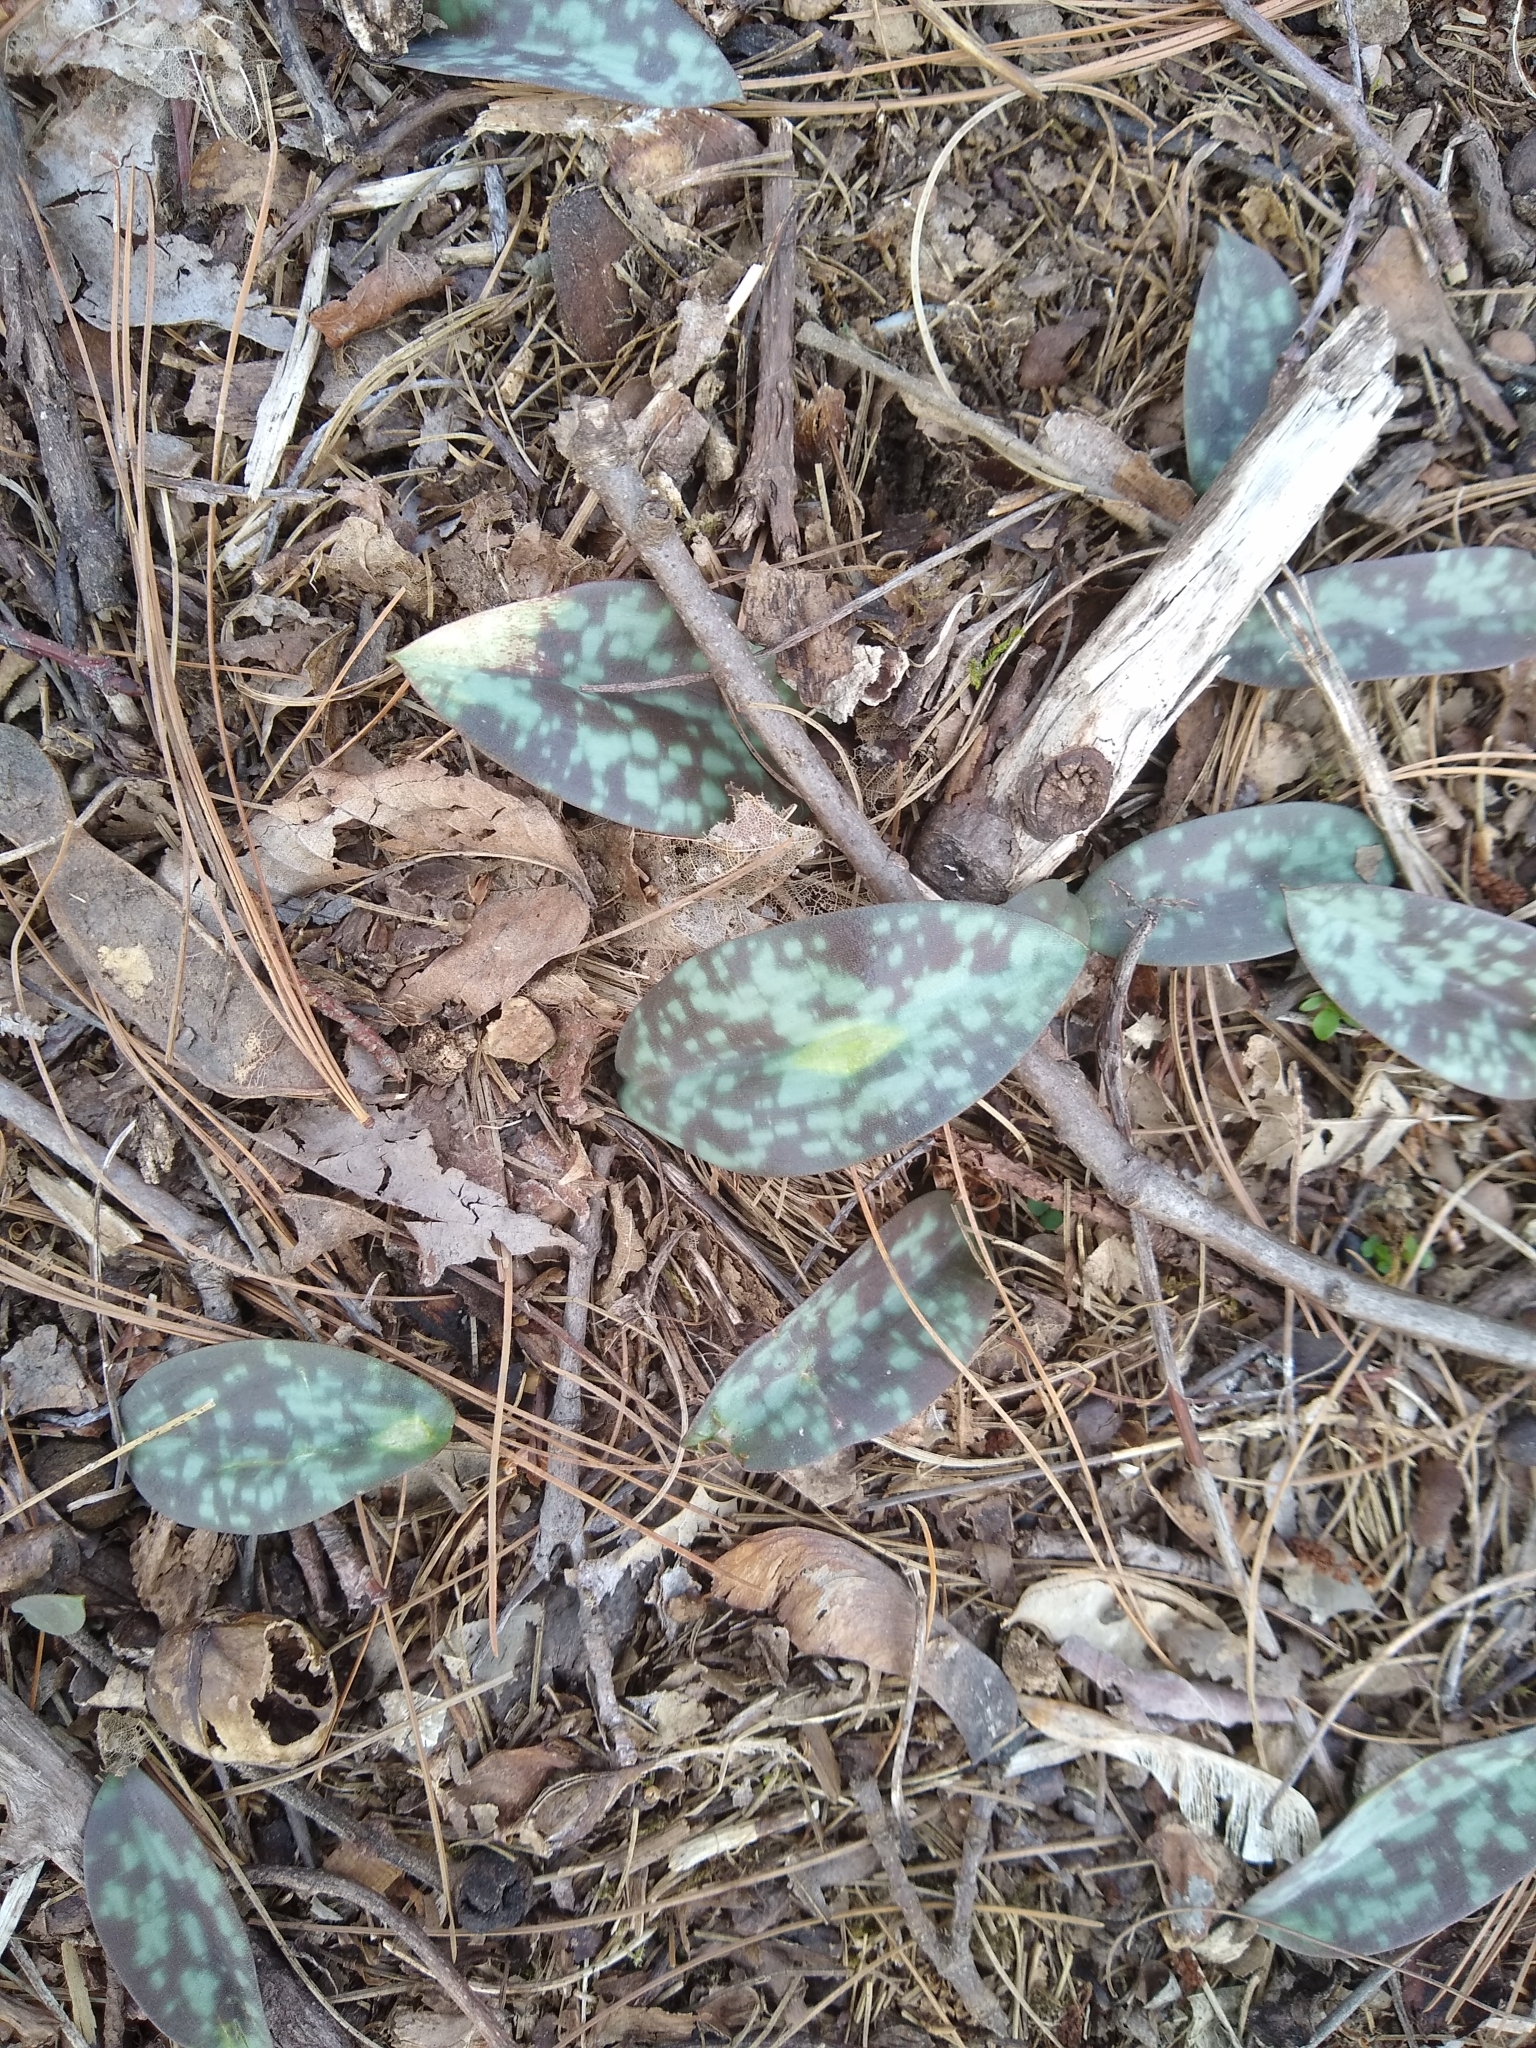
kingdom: Plantae
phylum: Tracheophyta
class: Liliopsida
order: Liliales
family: Liliaceae
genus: Erythronium
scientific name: Erythronium americanum
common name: Yellow adder's-tongue
